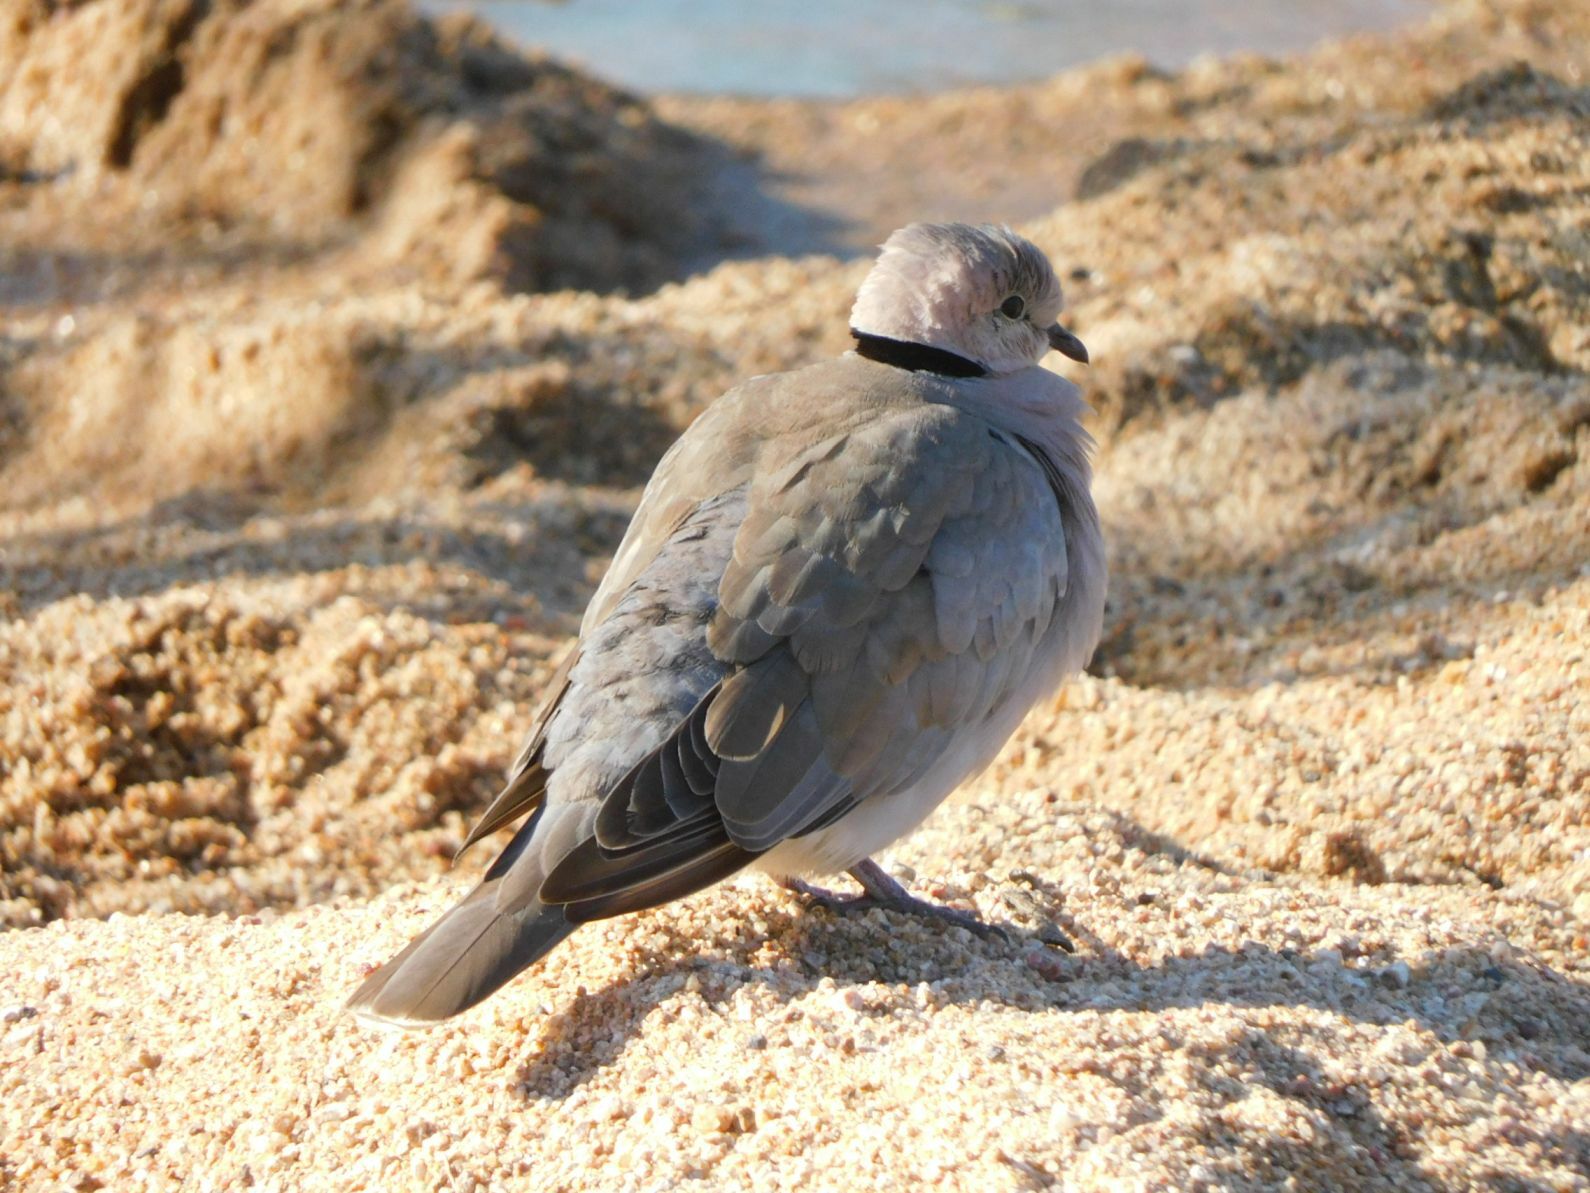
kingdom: Animalia
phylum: Chordata
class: Aves
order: Columbiformes
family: Columbidae
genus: Streptopelia
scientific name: Streptopelia capicola
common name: Ring-necked dove
